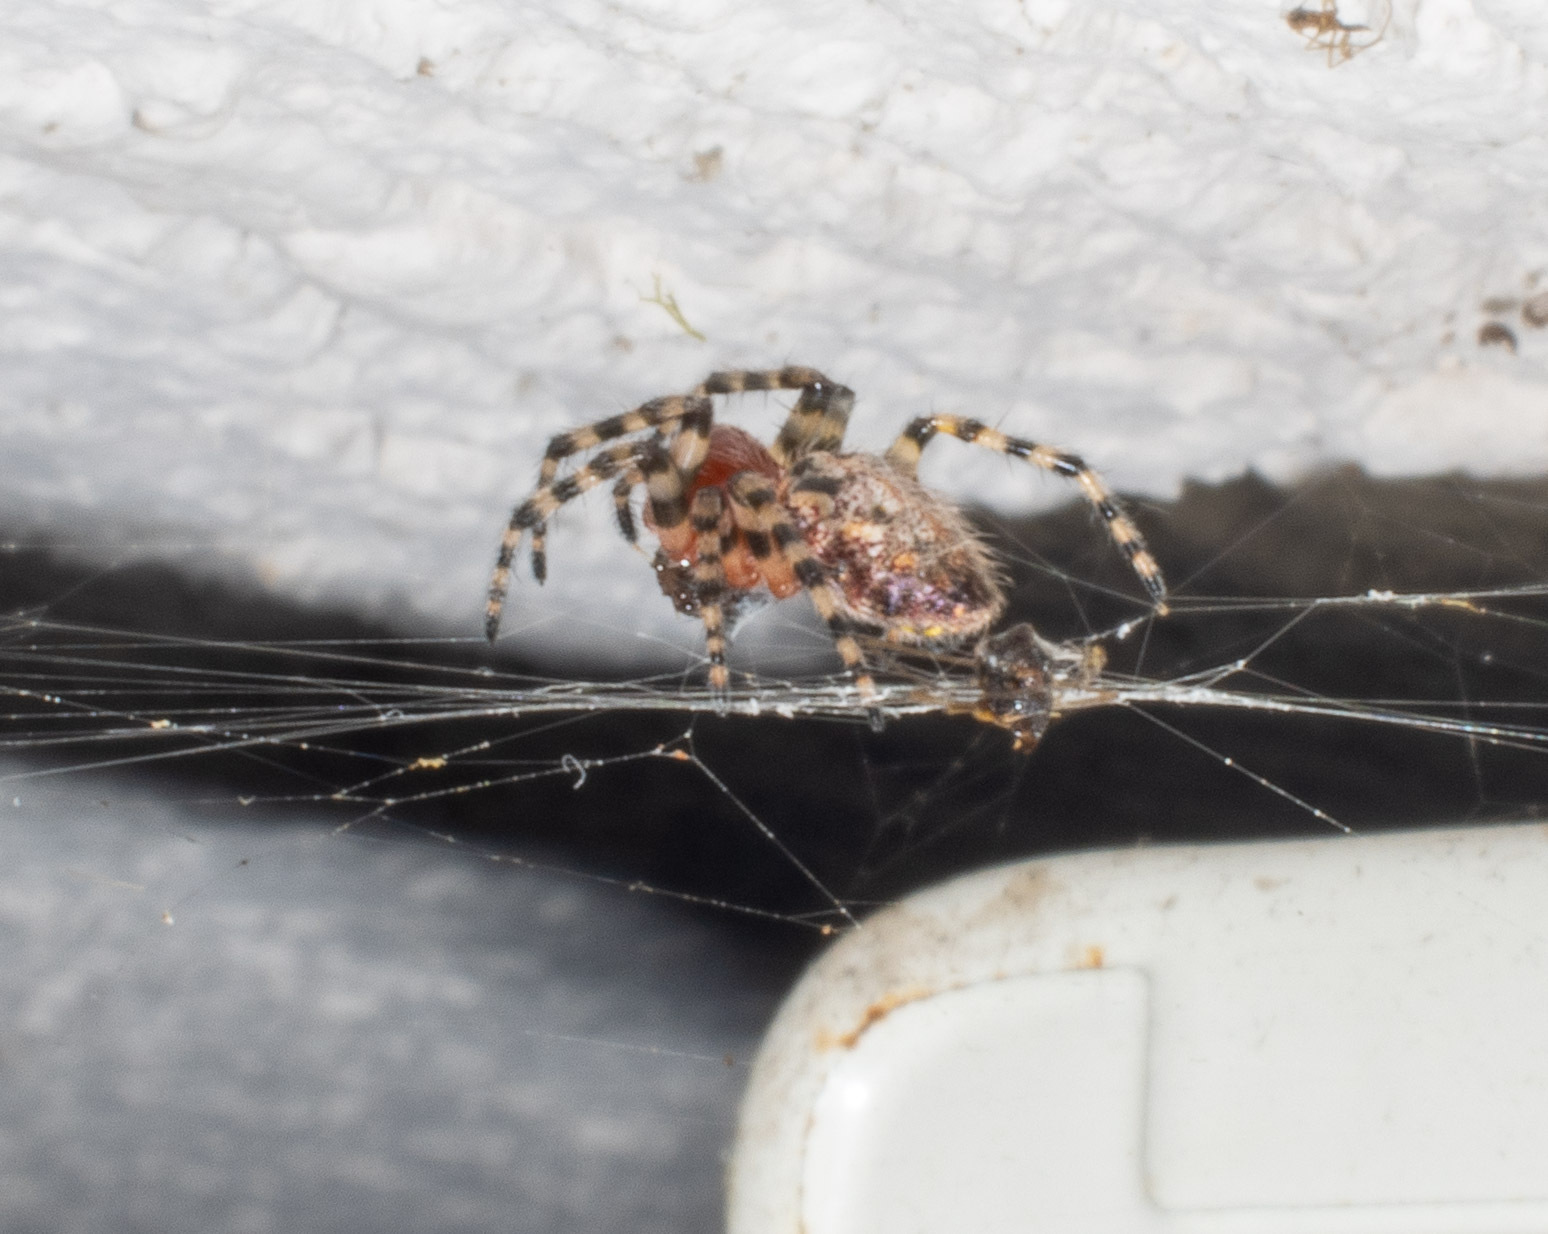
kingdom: Animalia
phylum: Arthropoda
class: Arachnida
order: Araneae
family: Araneidae
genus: Alpaida
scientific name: Alpaida alticeps
